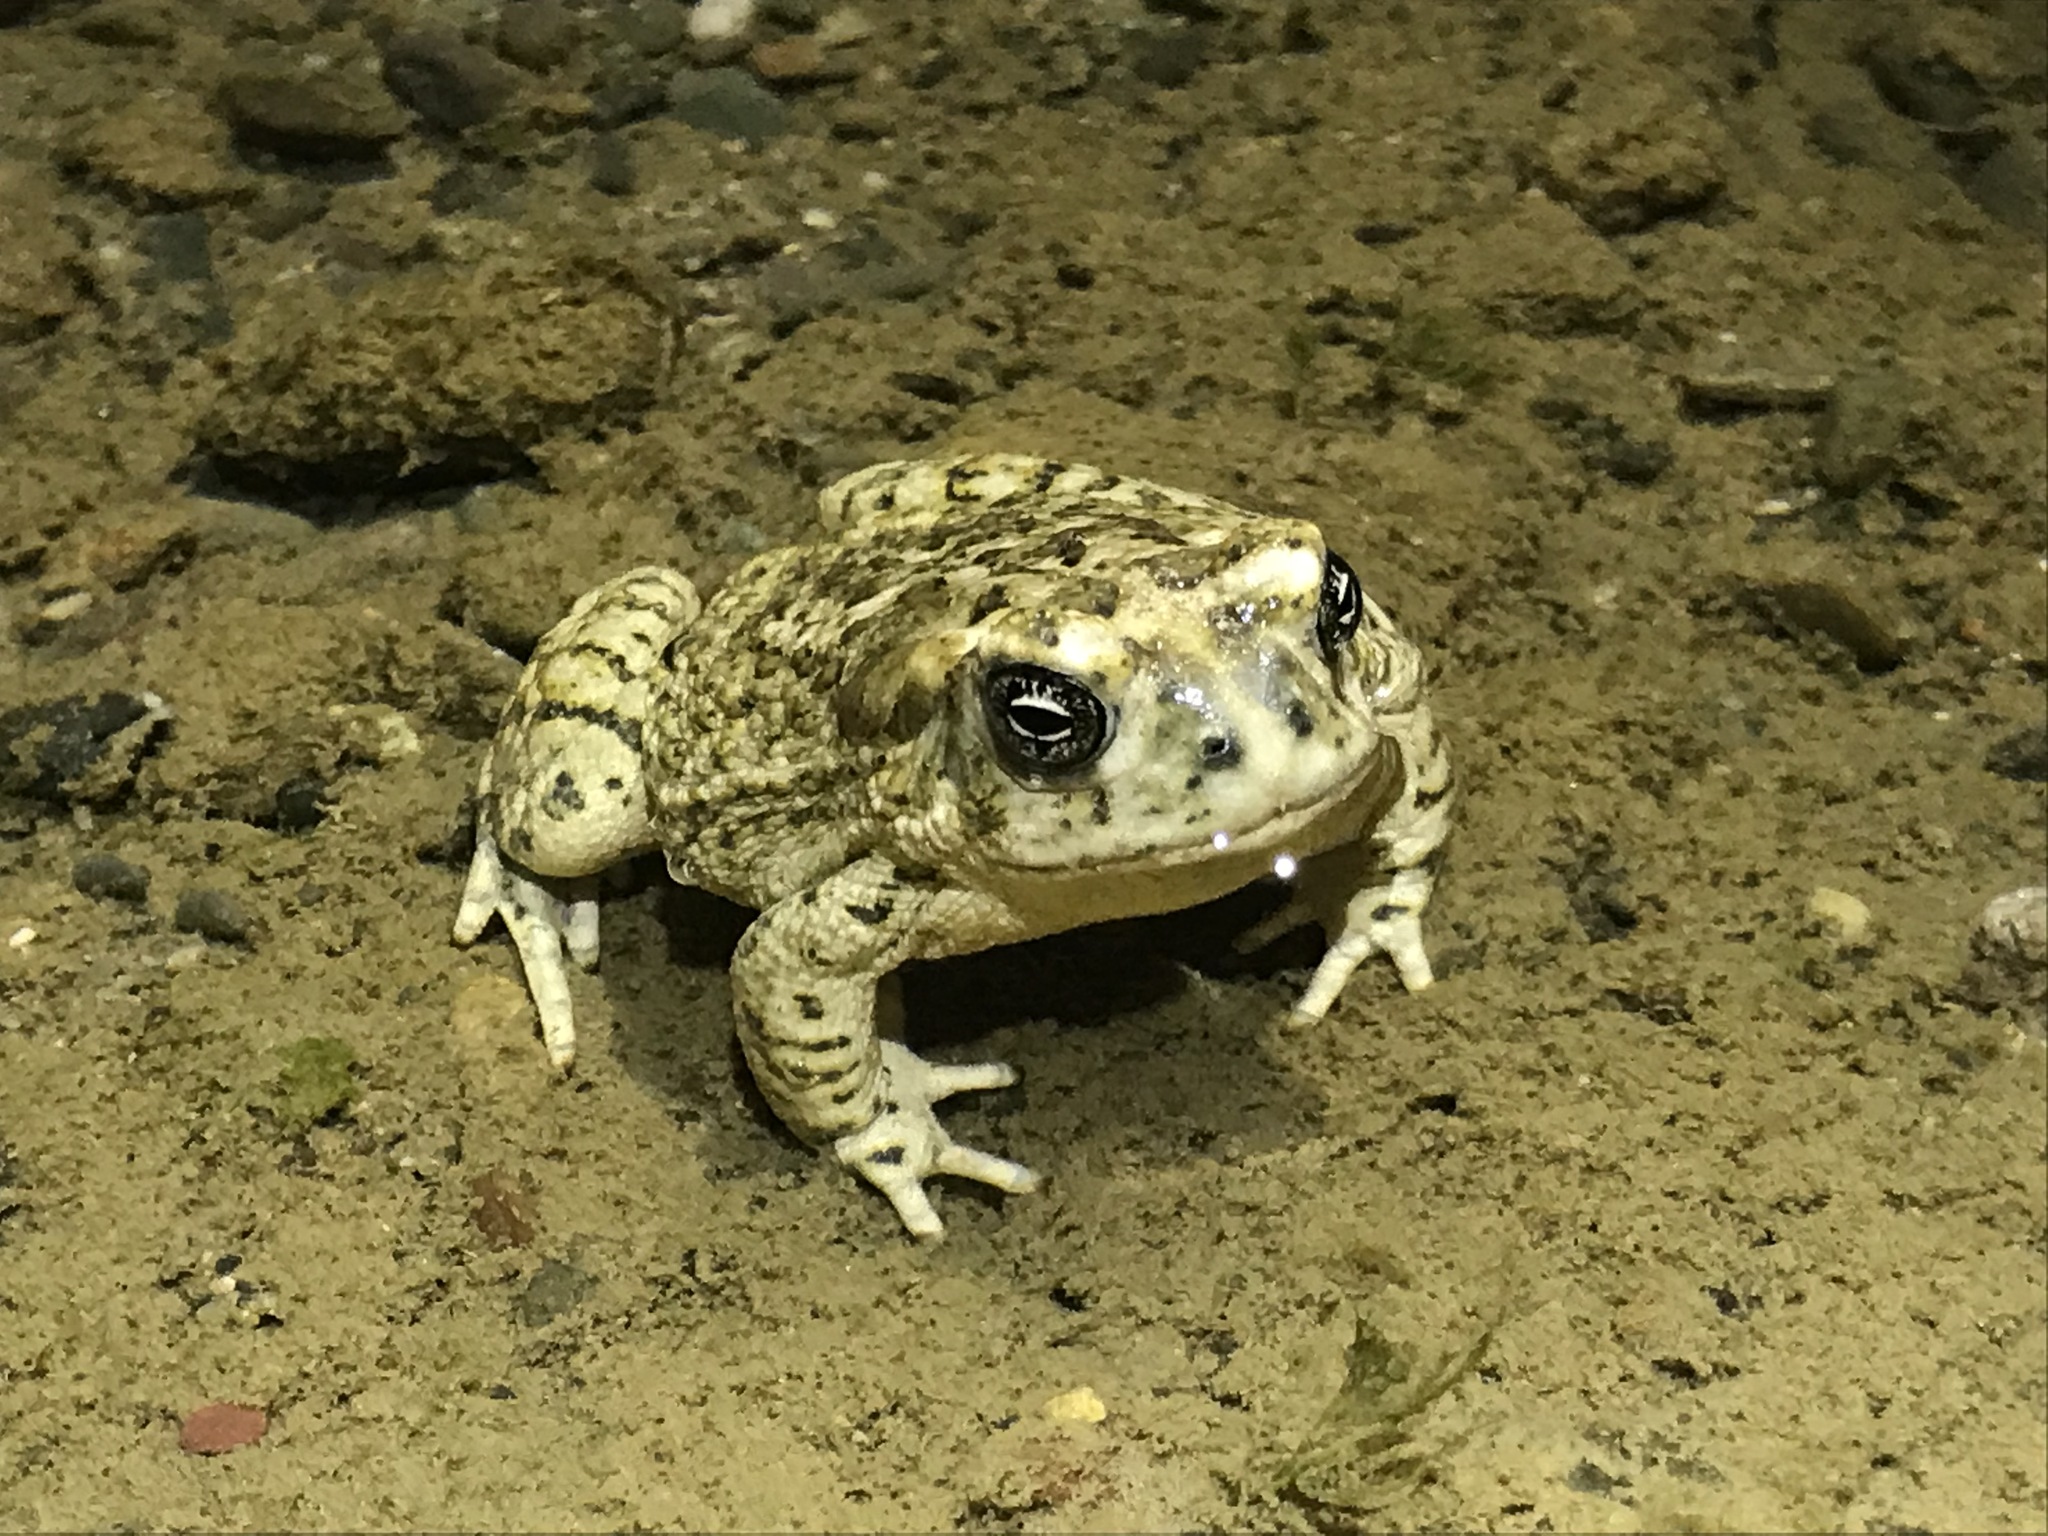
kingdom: Animalia
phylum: Chordata
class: Amphibia
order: Anura
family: Bufonidae
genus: Anaxyrus
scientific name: Anaxyrus californicus
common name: Arroyo toad
